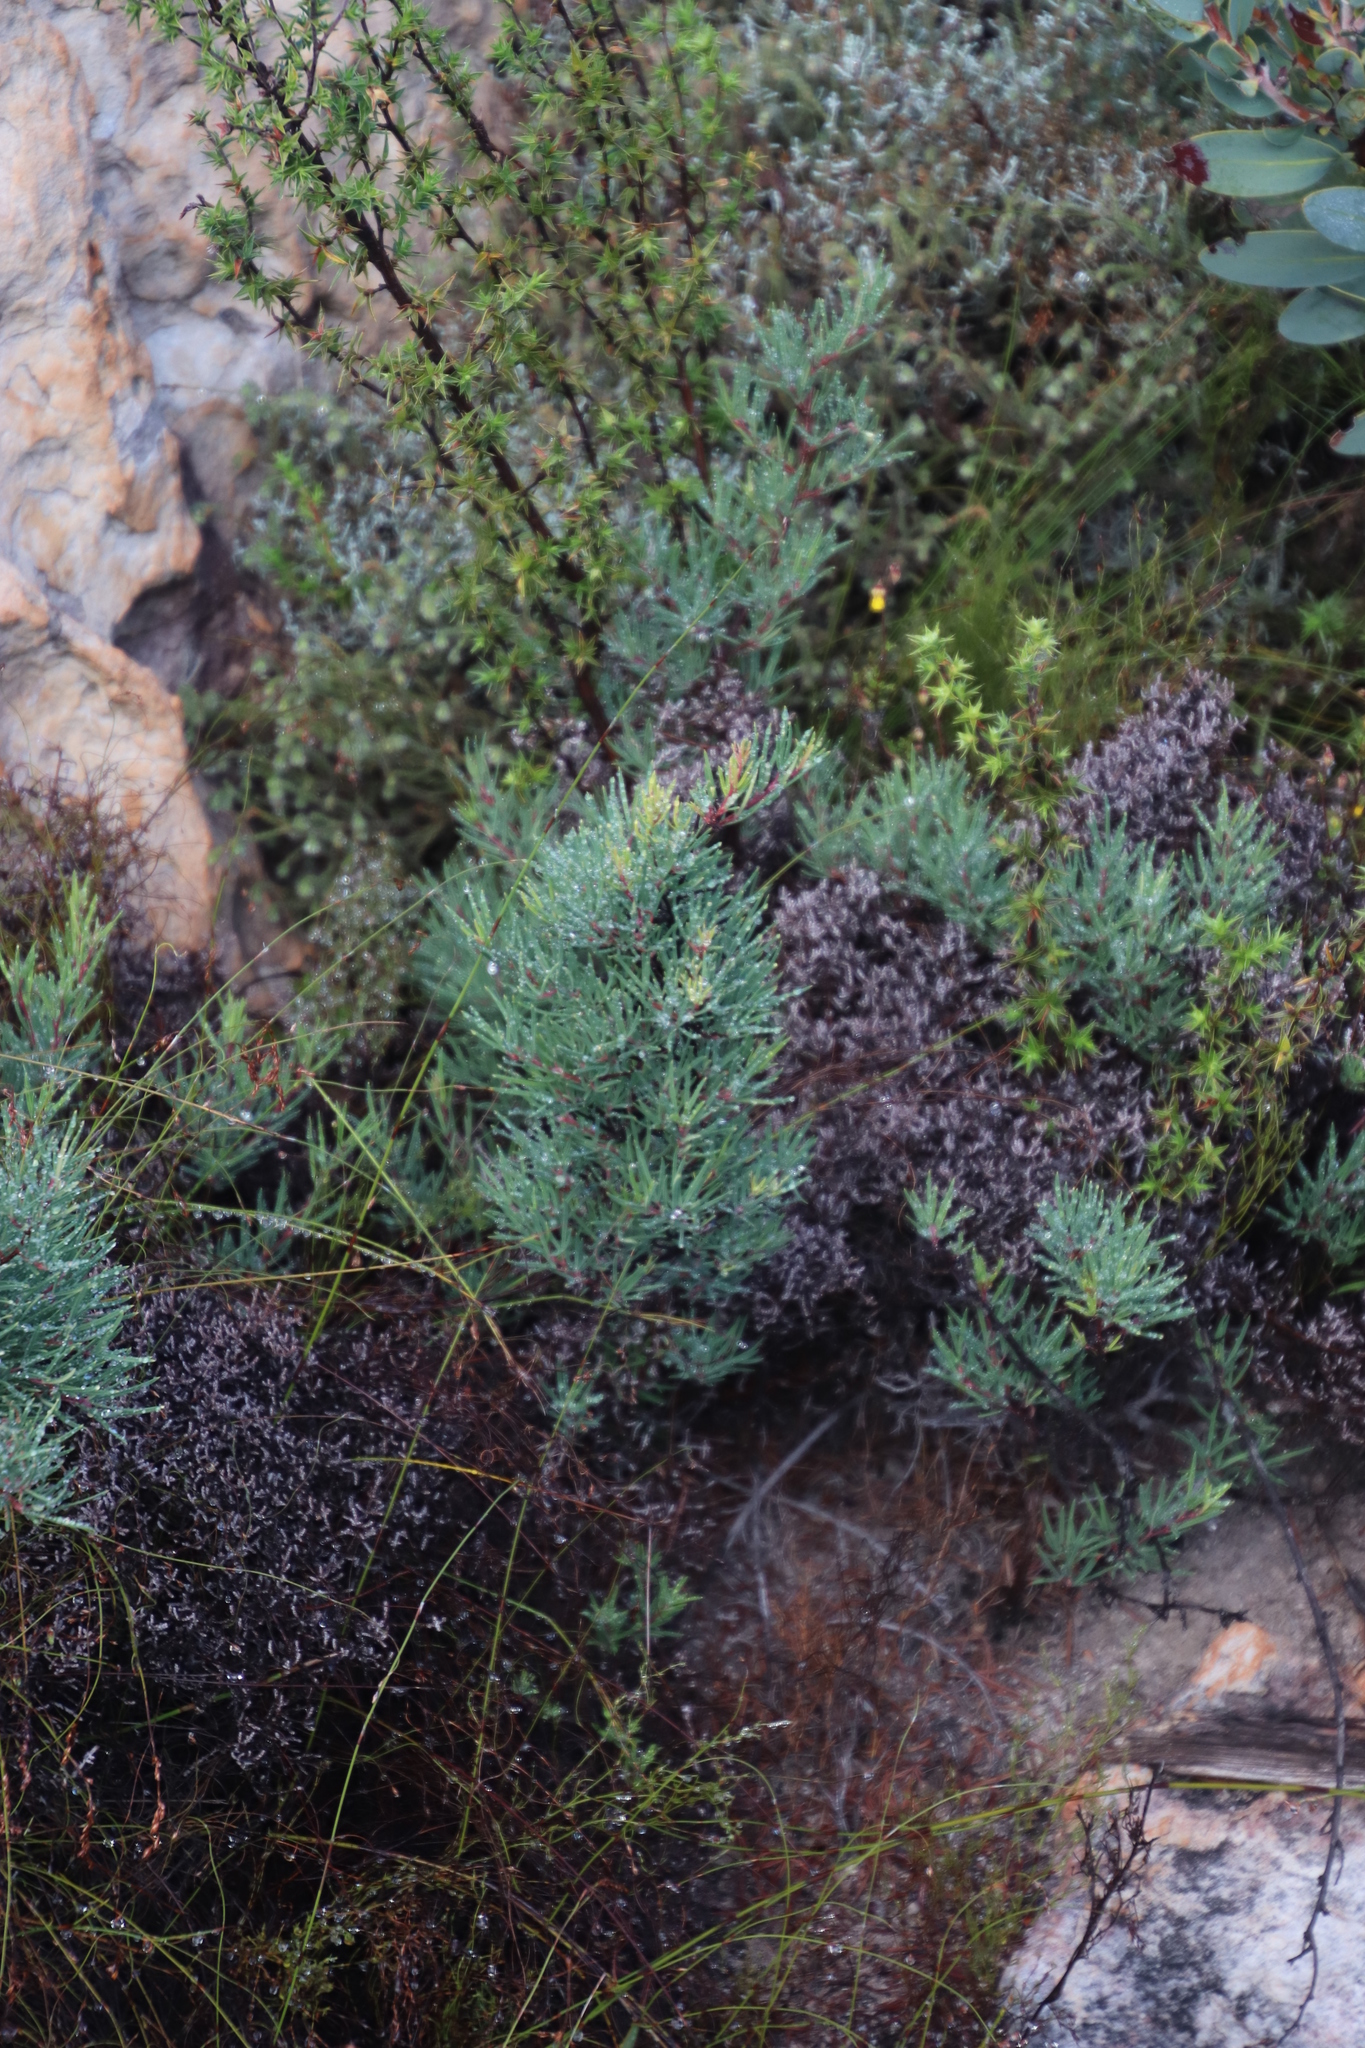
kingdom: Plantae
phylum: Tracheophyta
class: Magnoliopsida
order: Sapindales
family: Anacardiaceae
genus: Searsia
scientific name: Searsia rosmarinifolia
